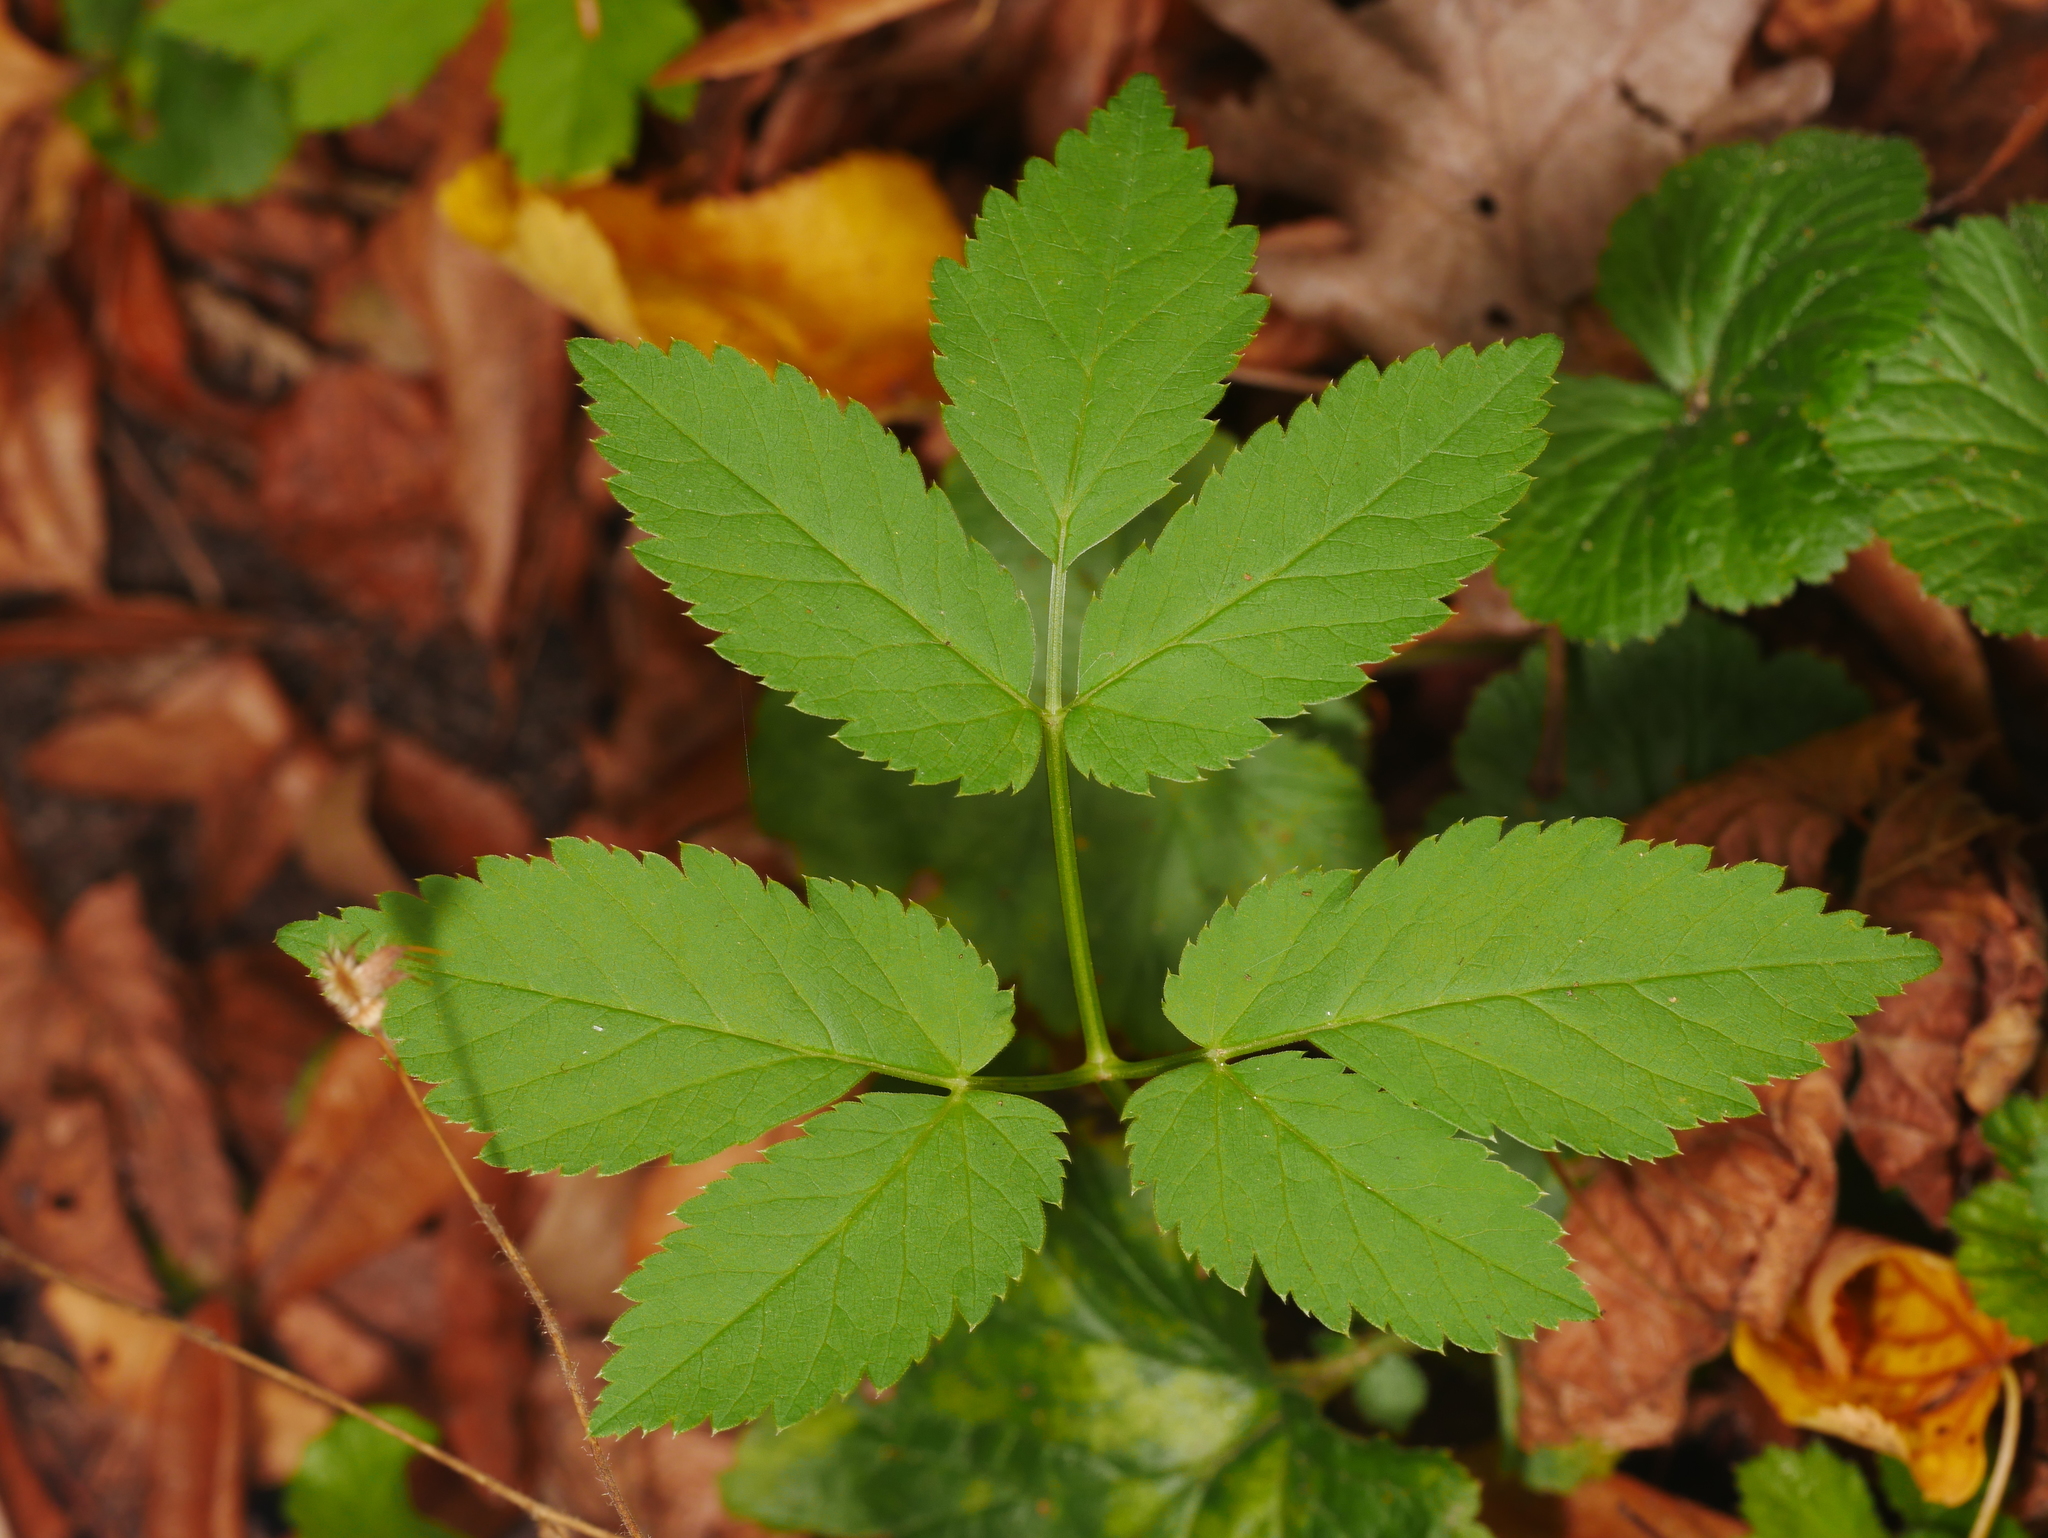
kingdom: Plantae
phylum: Tracheophyta
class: Magnoliopsida
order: Apiales
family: Apiaceae
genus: Aegopodium
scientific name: Aegopodium podagraria
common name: Ground-elder
